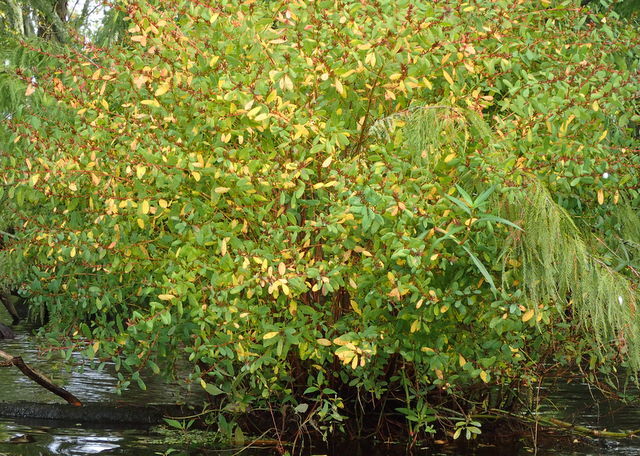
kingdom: Plantae
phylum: Tracheophyta
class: Magnoliopsida
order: Malpighiales
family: Hypericaceae
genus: Triadenum
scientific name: Triadenum walteri
